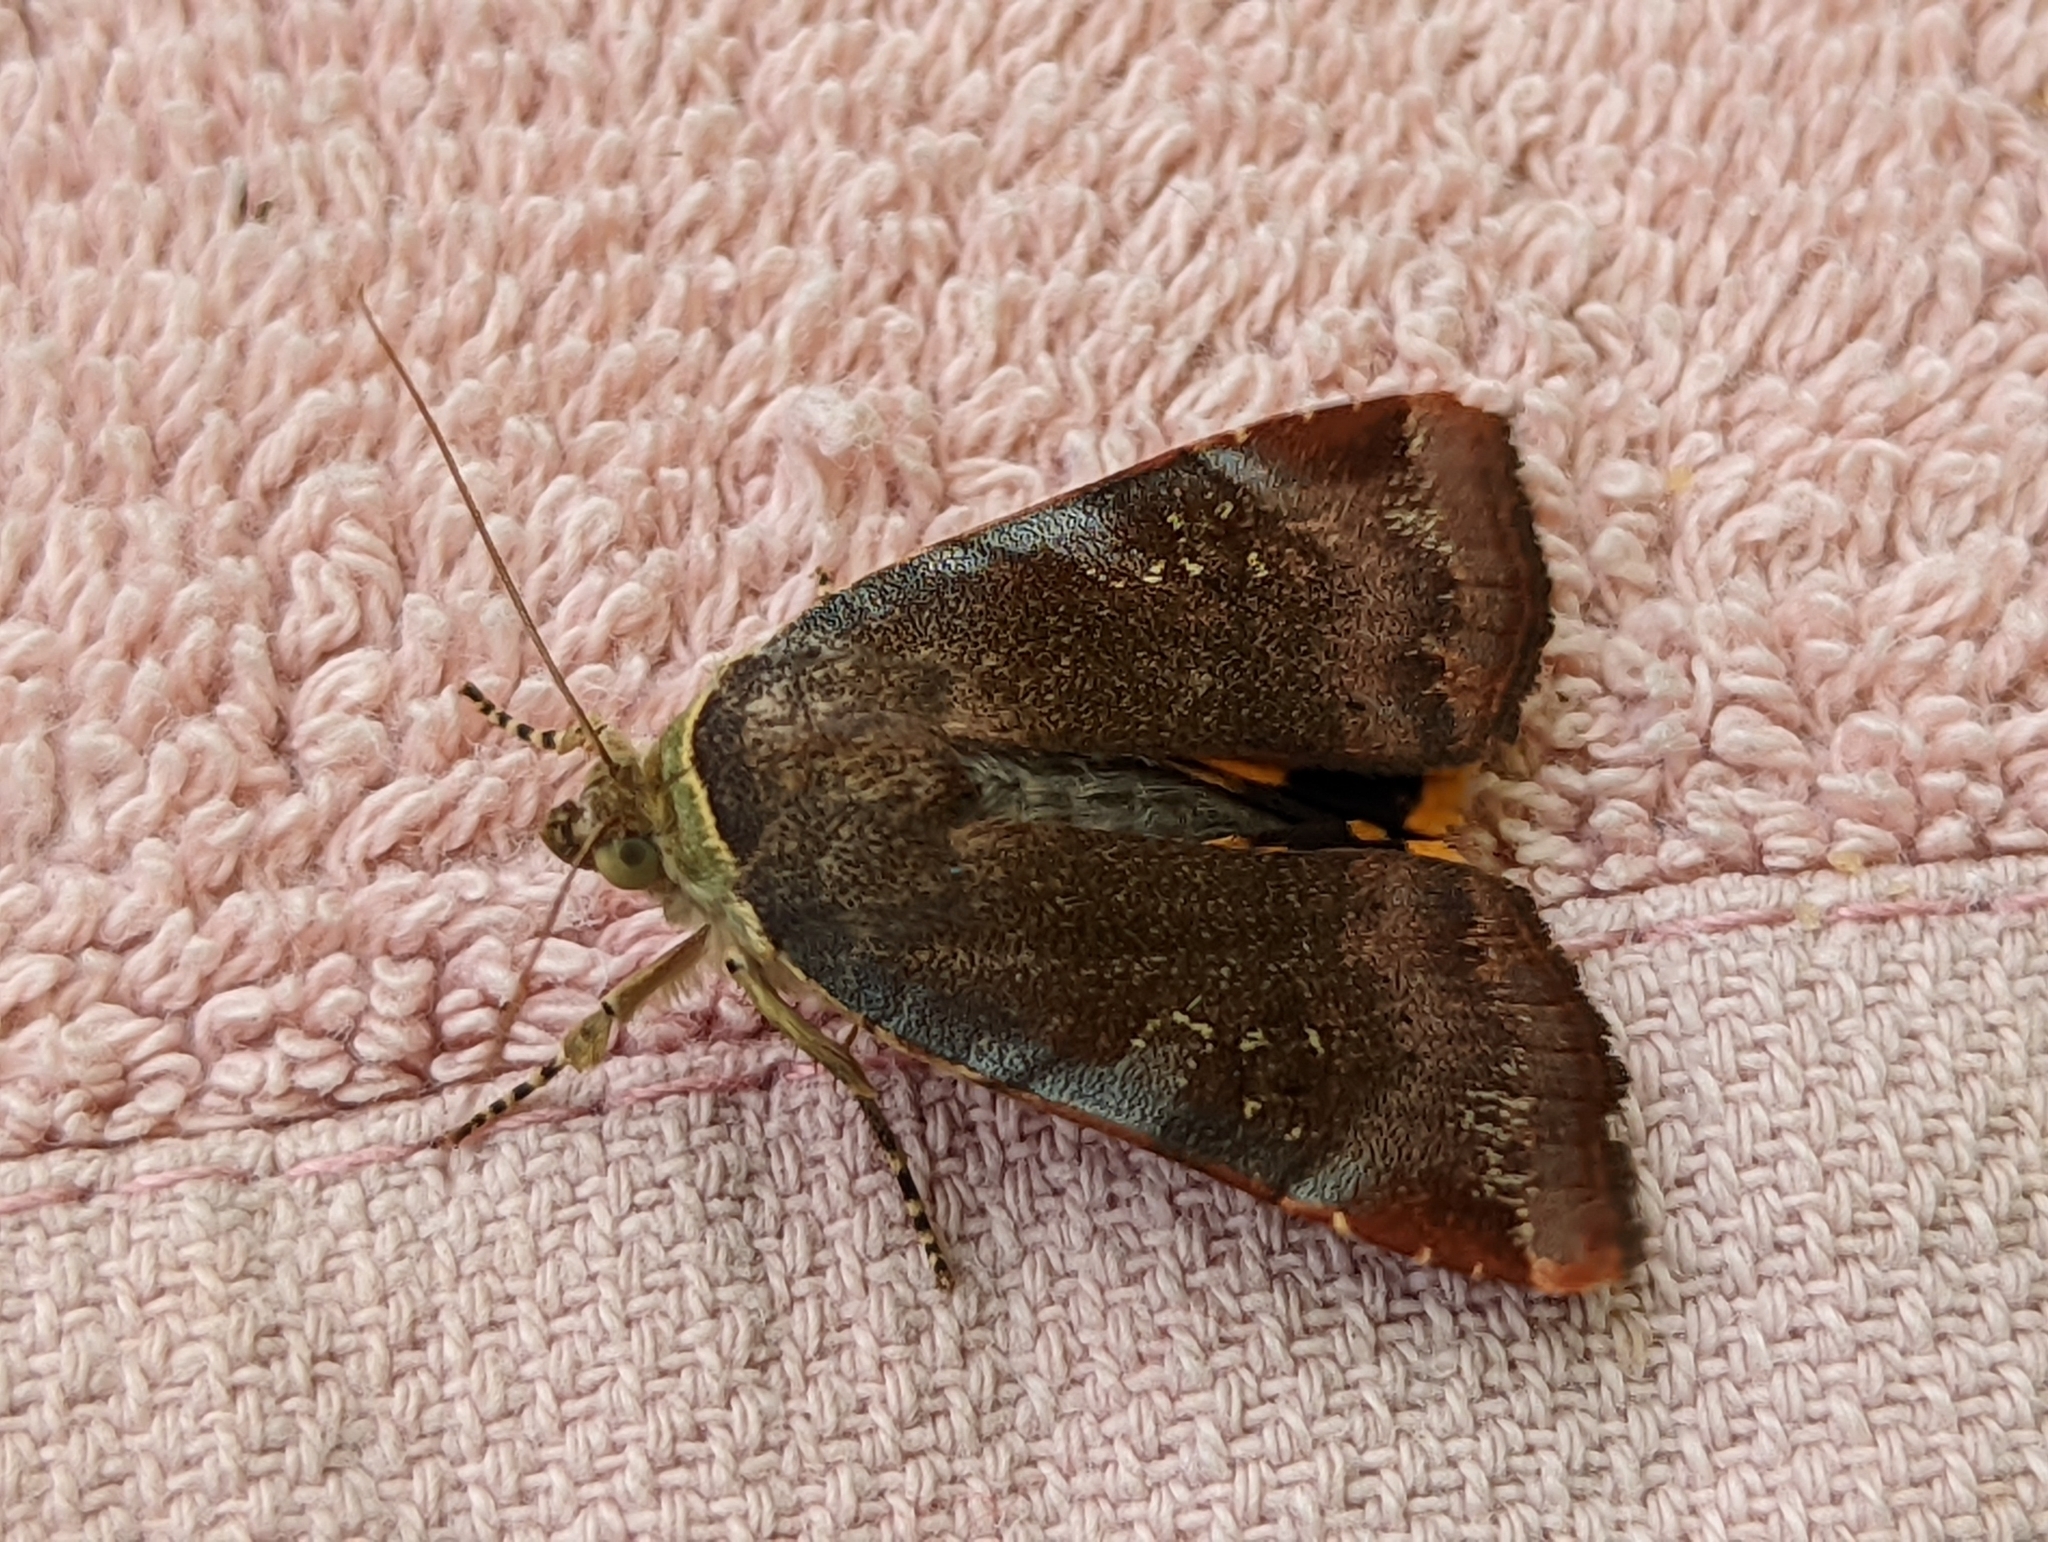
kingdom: Animalia
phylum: Arthropoda
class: Insecta
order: Lepidoptera
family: Noctuidae
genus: Noctua
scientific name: Noctua janthe
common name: Lesser broad-bordered yellow underwing
